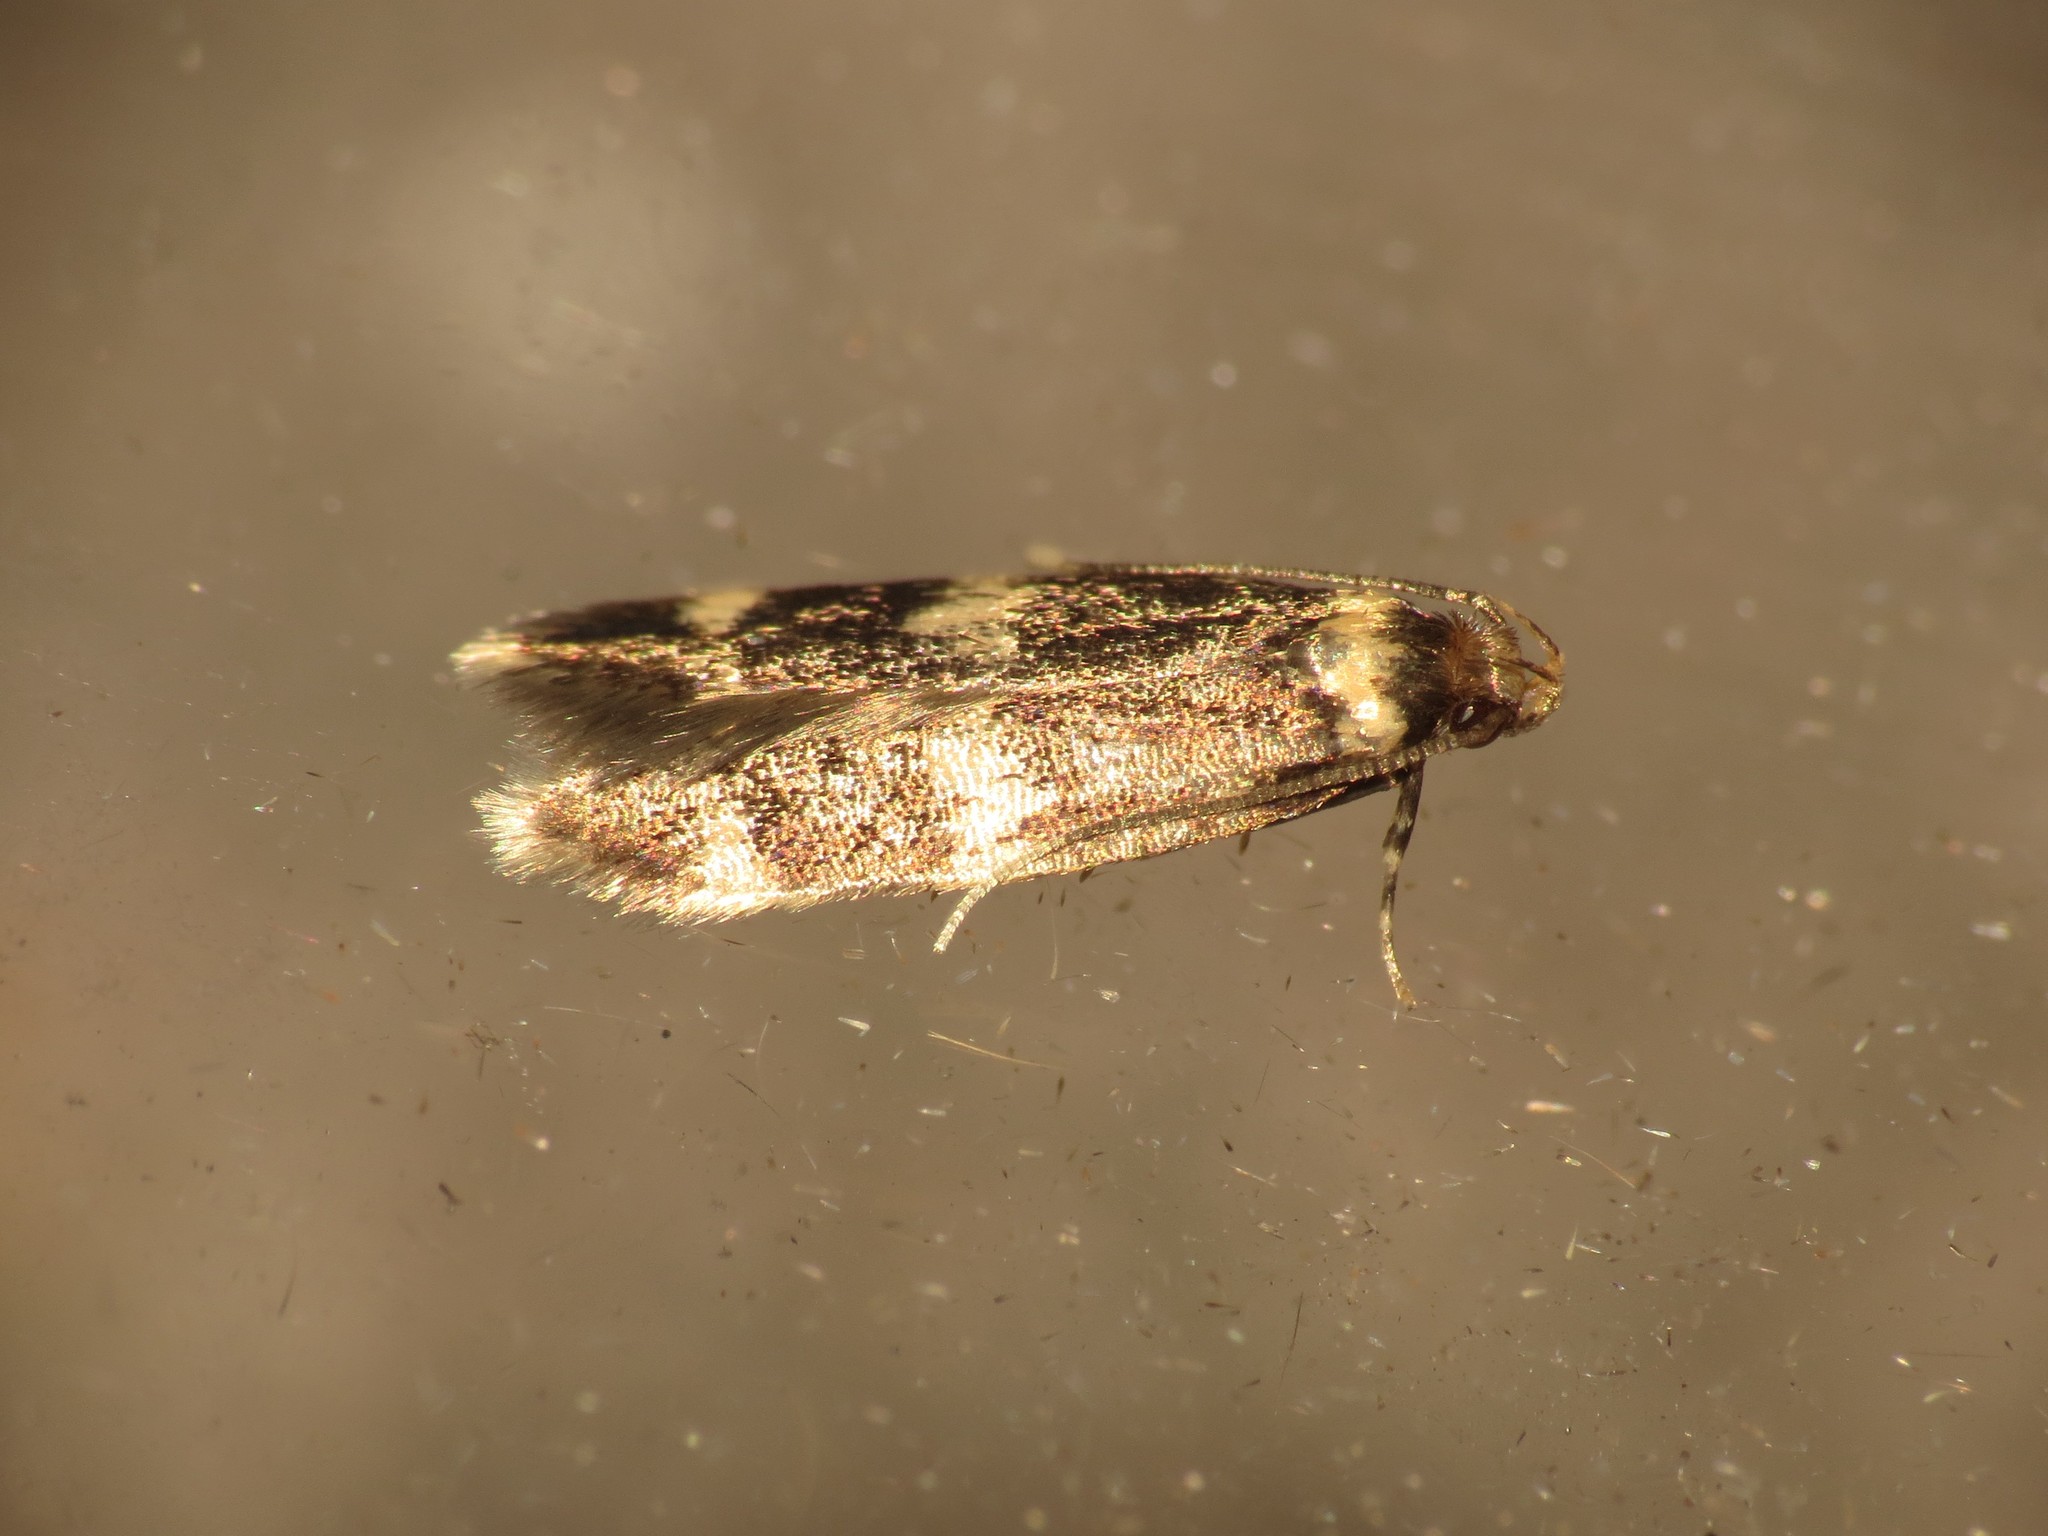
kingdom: Animalia
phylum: Arthropoda
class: Insecta
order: Lepidoptera
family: Autostichidae
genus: Oegoconia
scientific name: Oegoconia quadripuncta
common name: Four-spotted obscure
